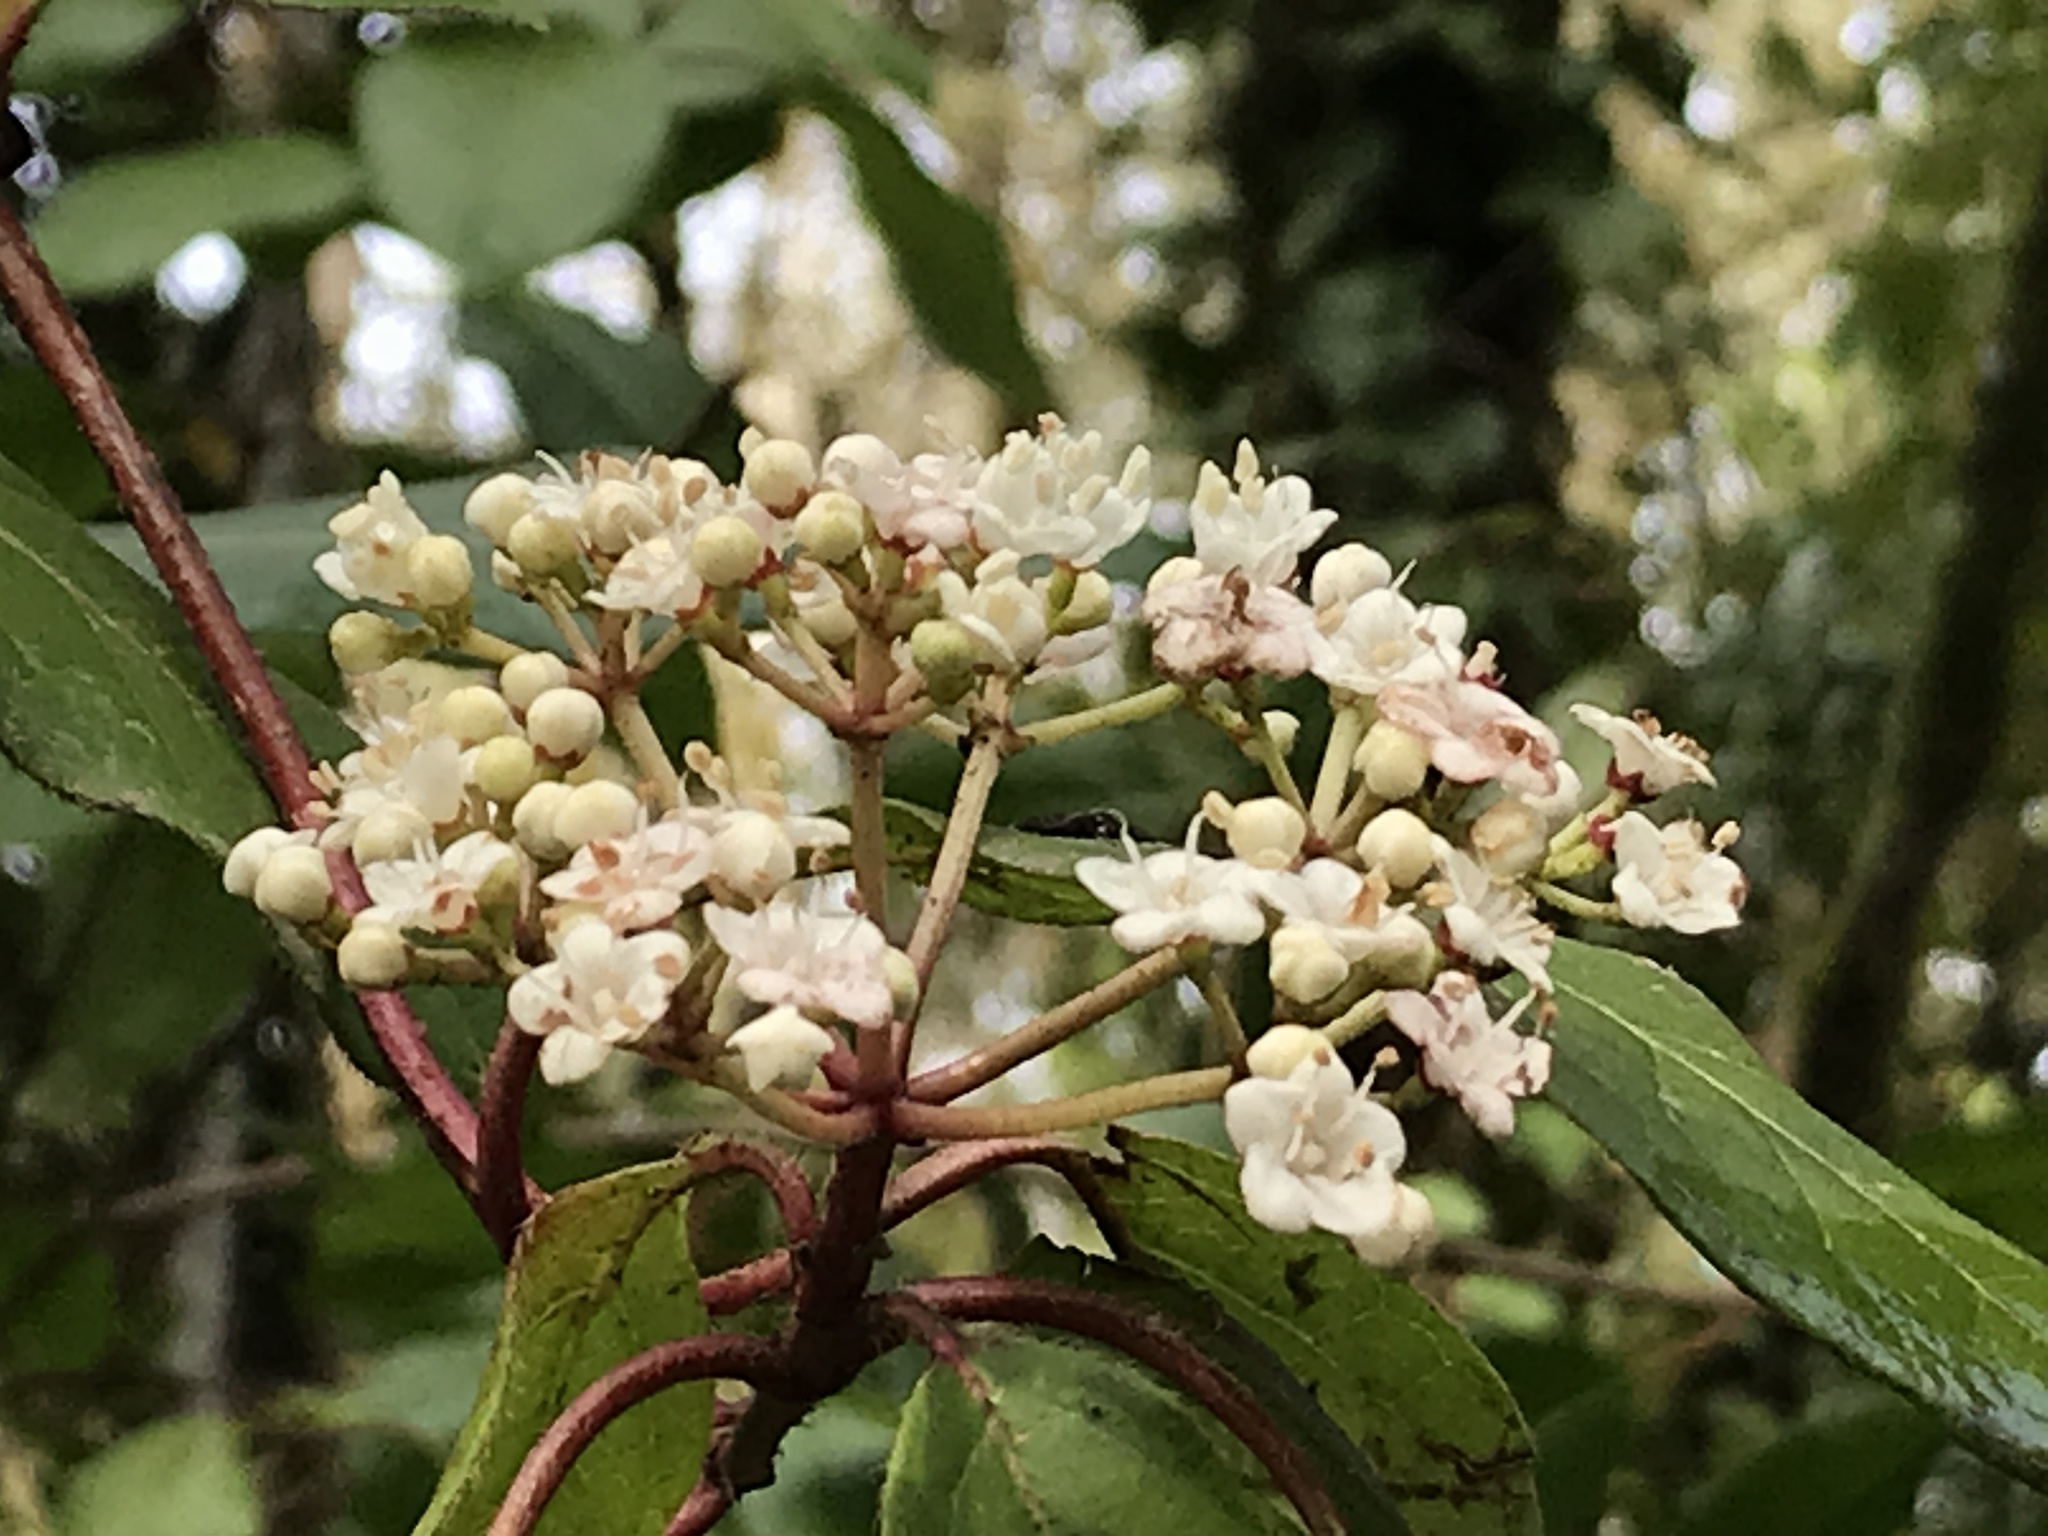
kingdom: Plantae
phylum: Tracheophyta
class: Magnoliopsida
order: Dipsacales
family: Viburnaceae
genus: Viburnum
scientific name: Viburnum tinus
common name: Laurustinus
